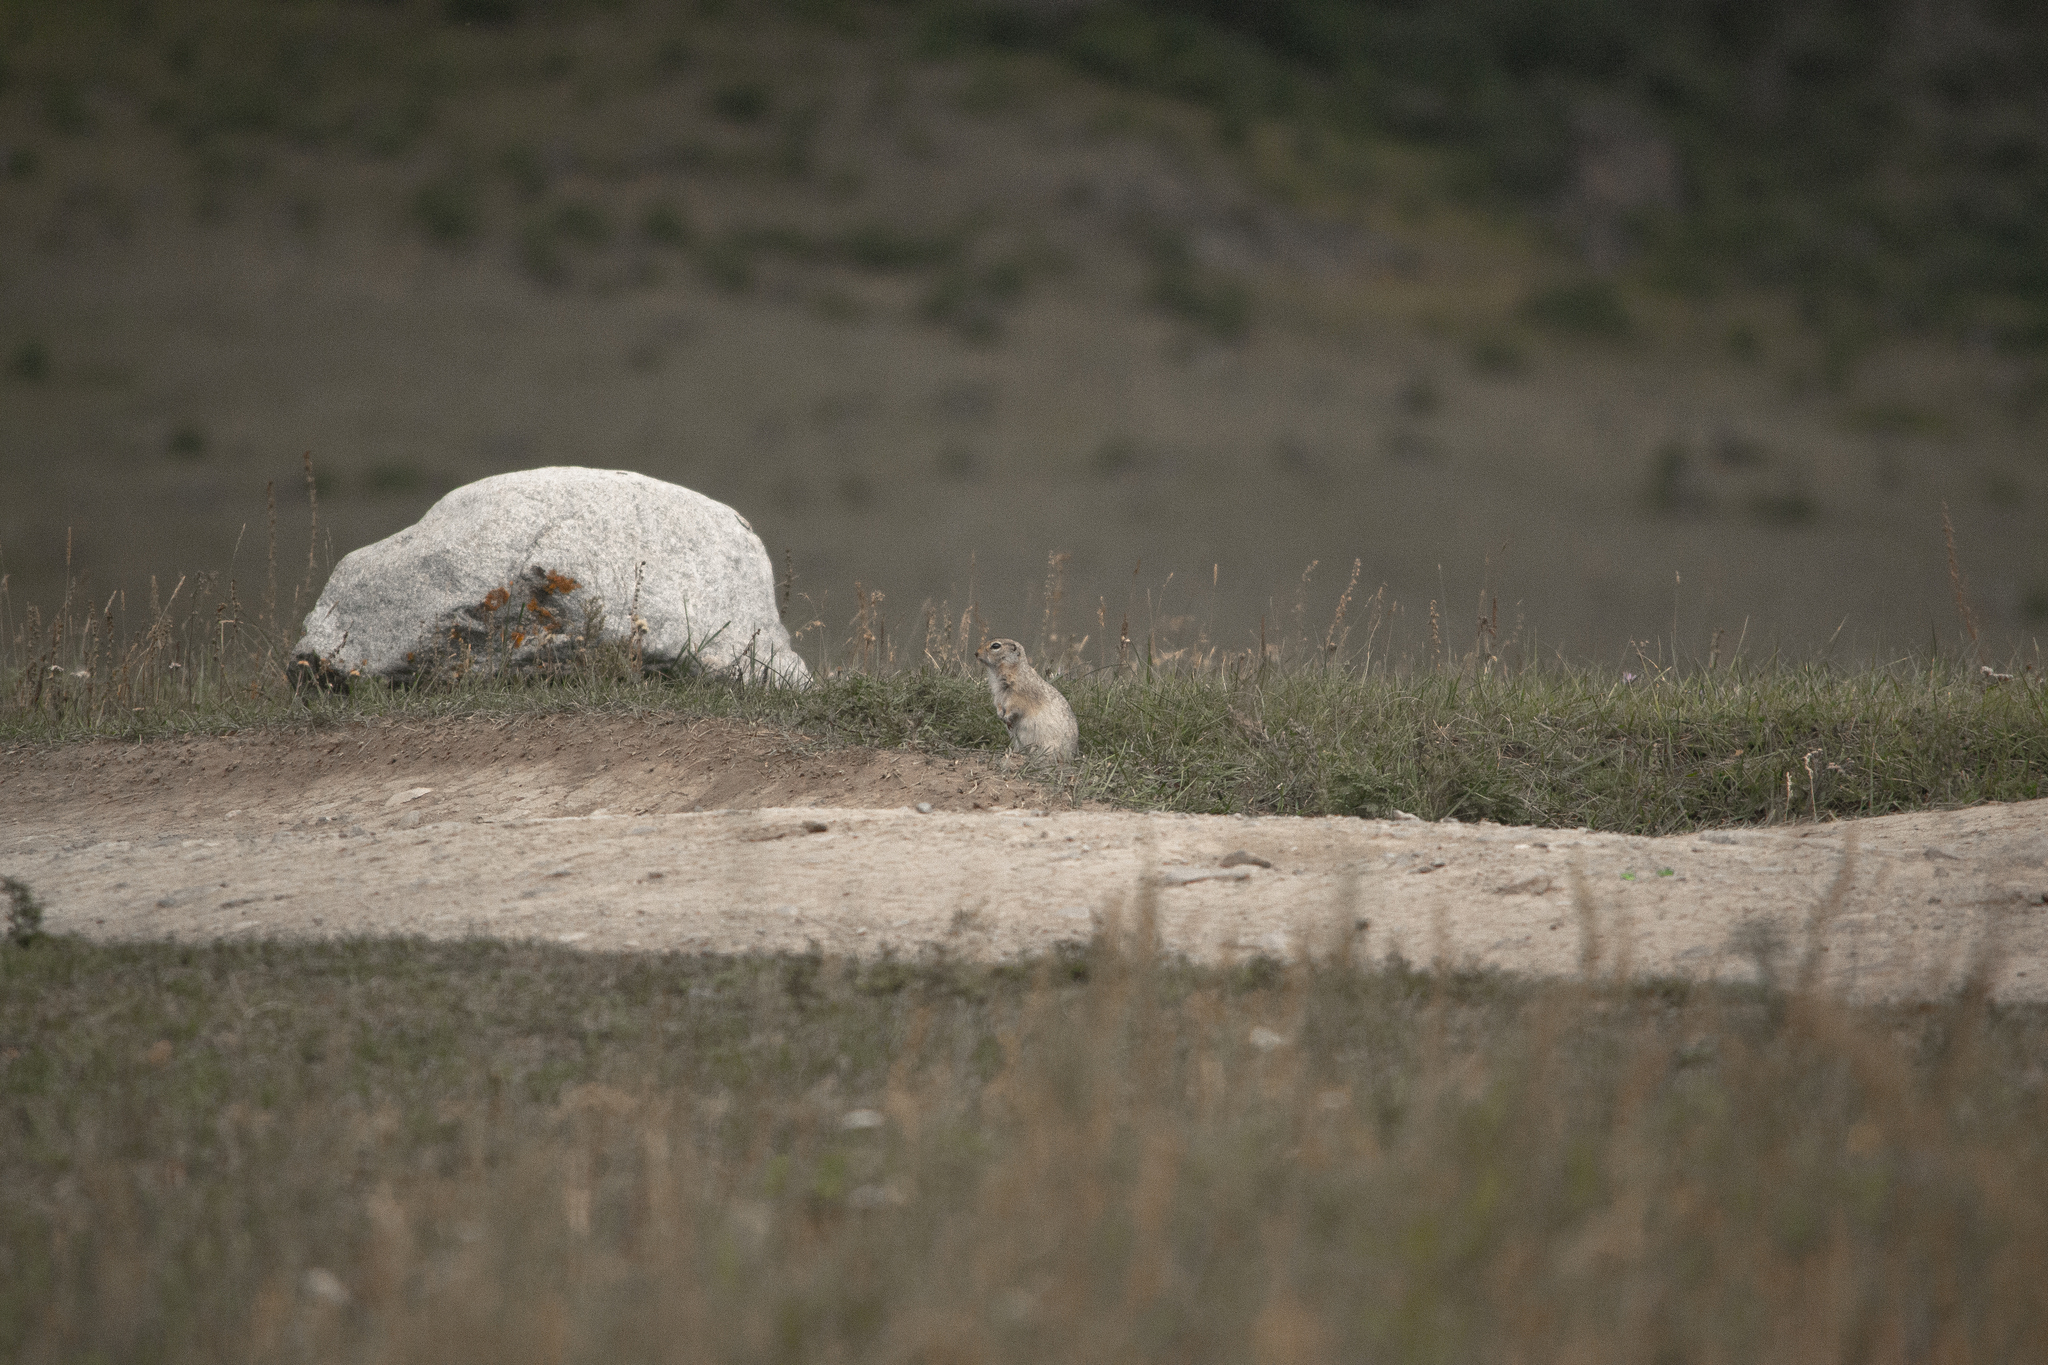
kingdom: Animalia
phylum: Chordata
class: Mammalia
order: Rodentia
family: Sciuridae
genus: Urocitellus
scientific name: Urocitellus undulatus
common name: Long-tailed ground squirrel
